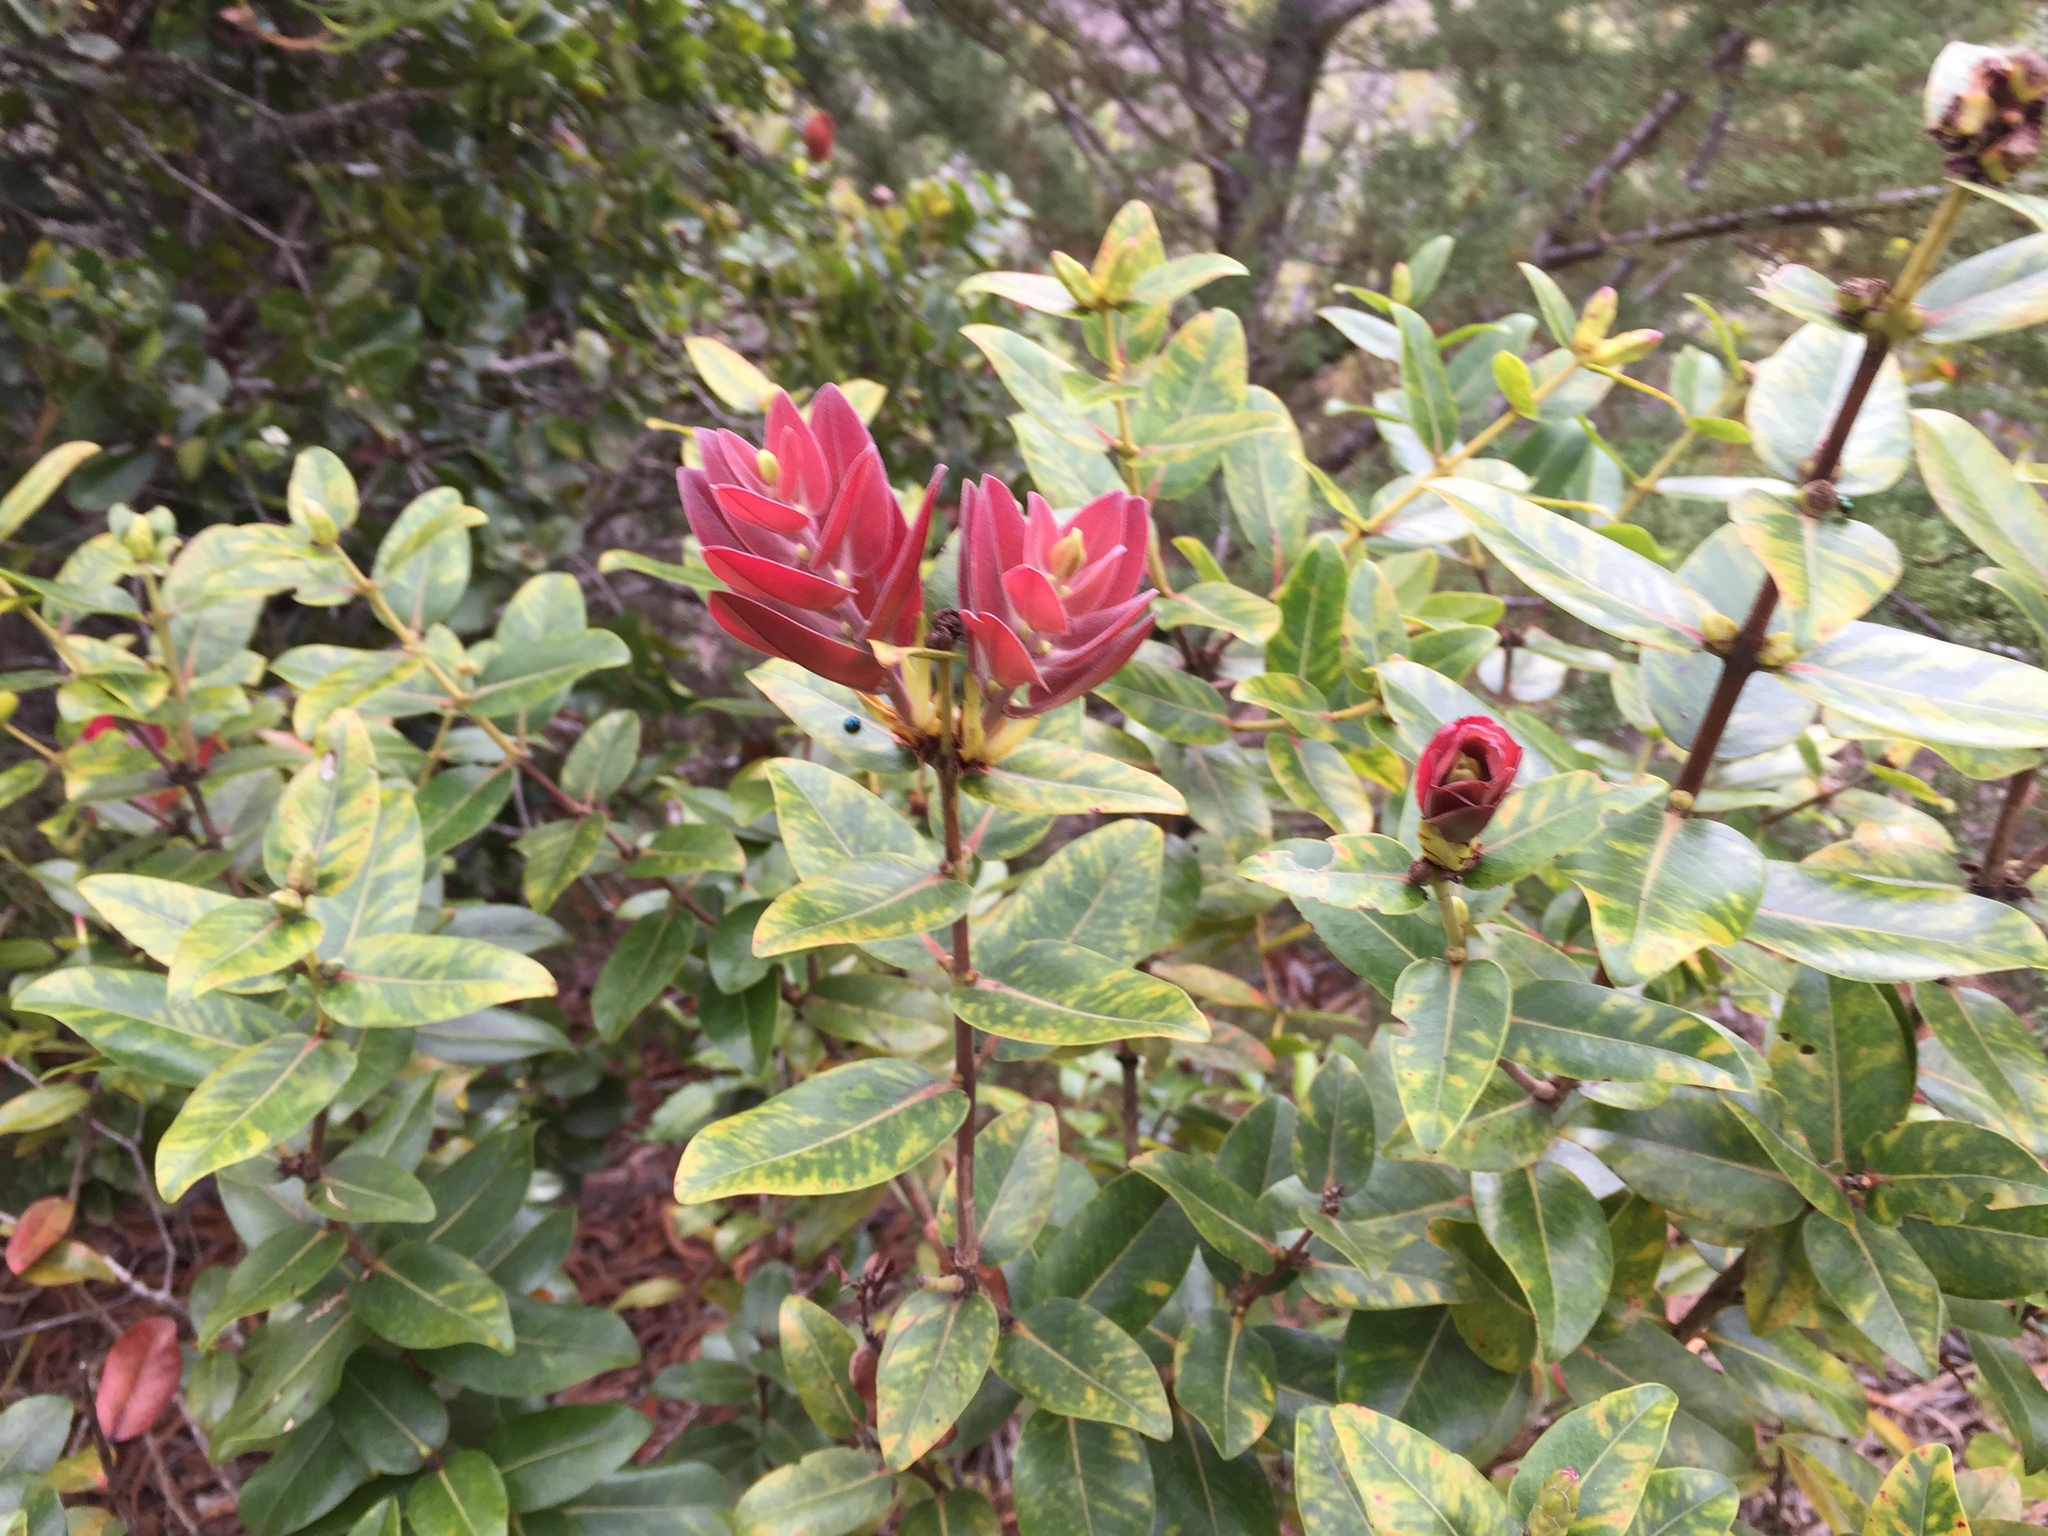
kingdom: Plantae
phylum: Tracheophyta
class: Magnoliopsida
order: Myrtales
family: Myrtaceae
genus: Metrosideros
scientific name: Metrosideros polymorpha
